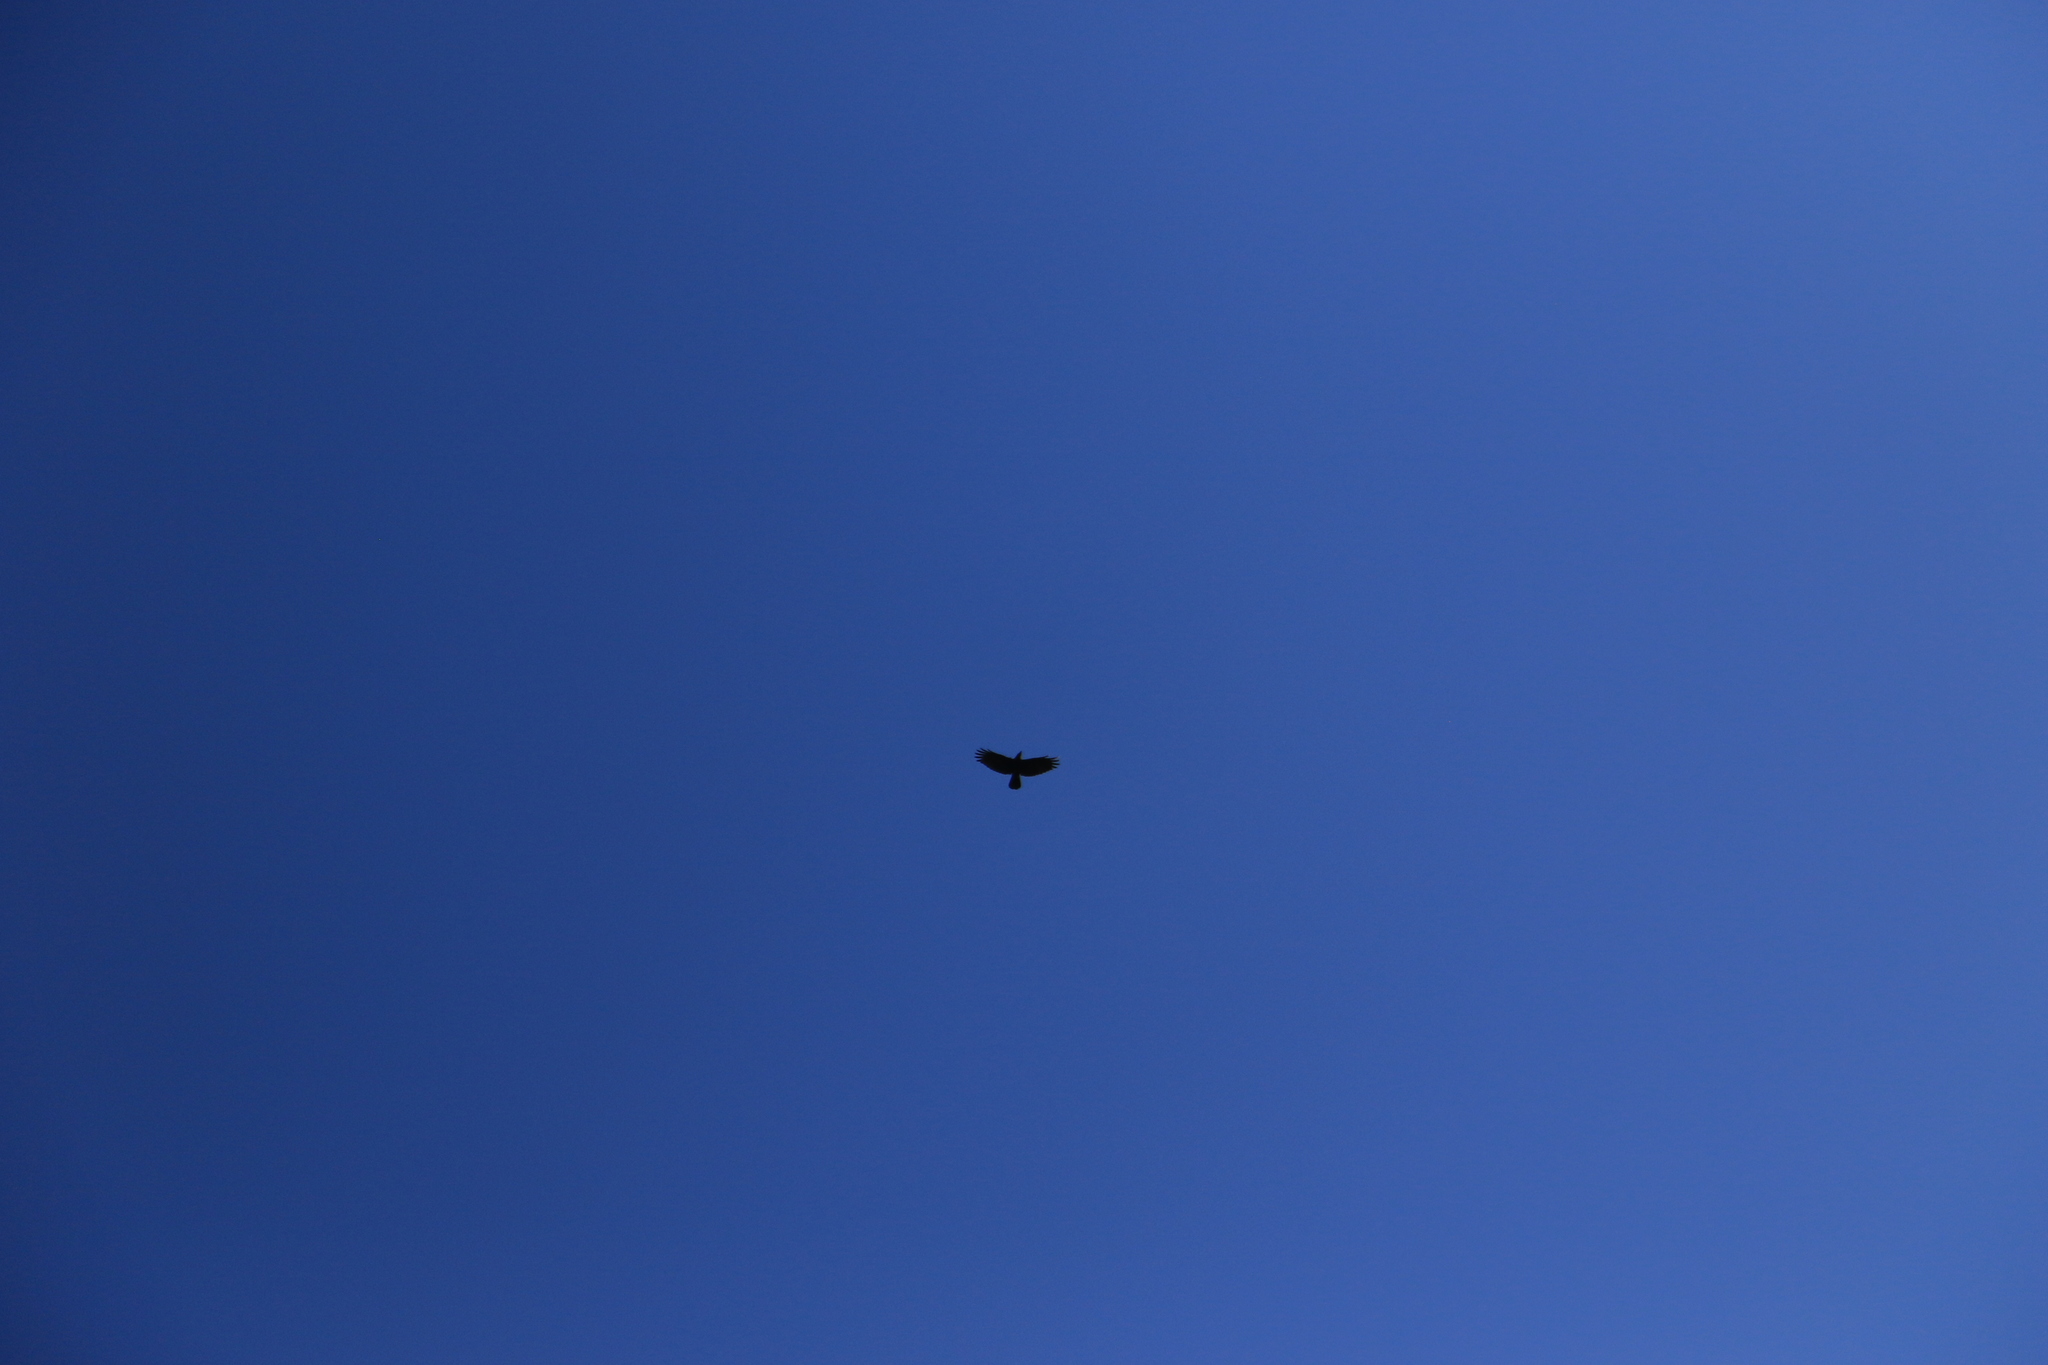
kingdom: Animalia
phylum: Chordata
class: Aves
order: Passeriformes
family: Corvidae
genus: Corvus
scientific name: Corvus brachyrhynchos
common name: American crow
